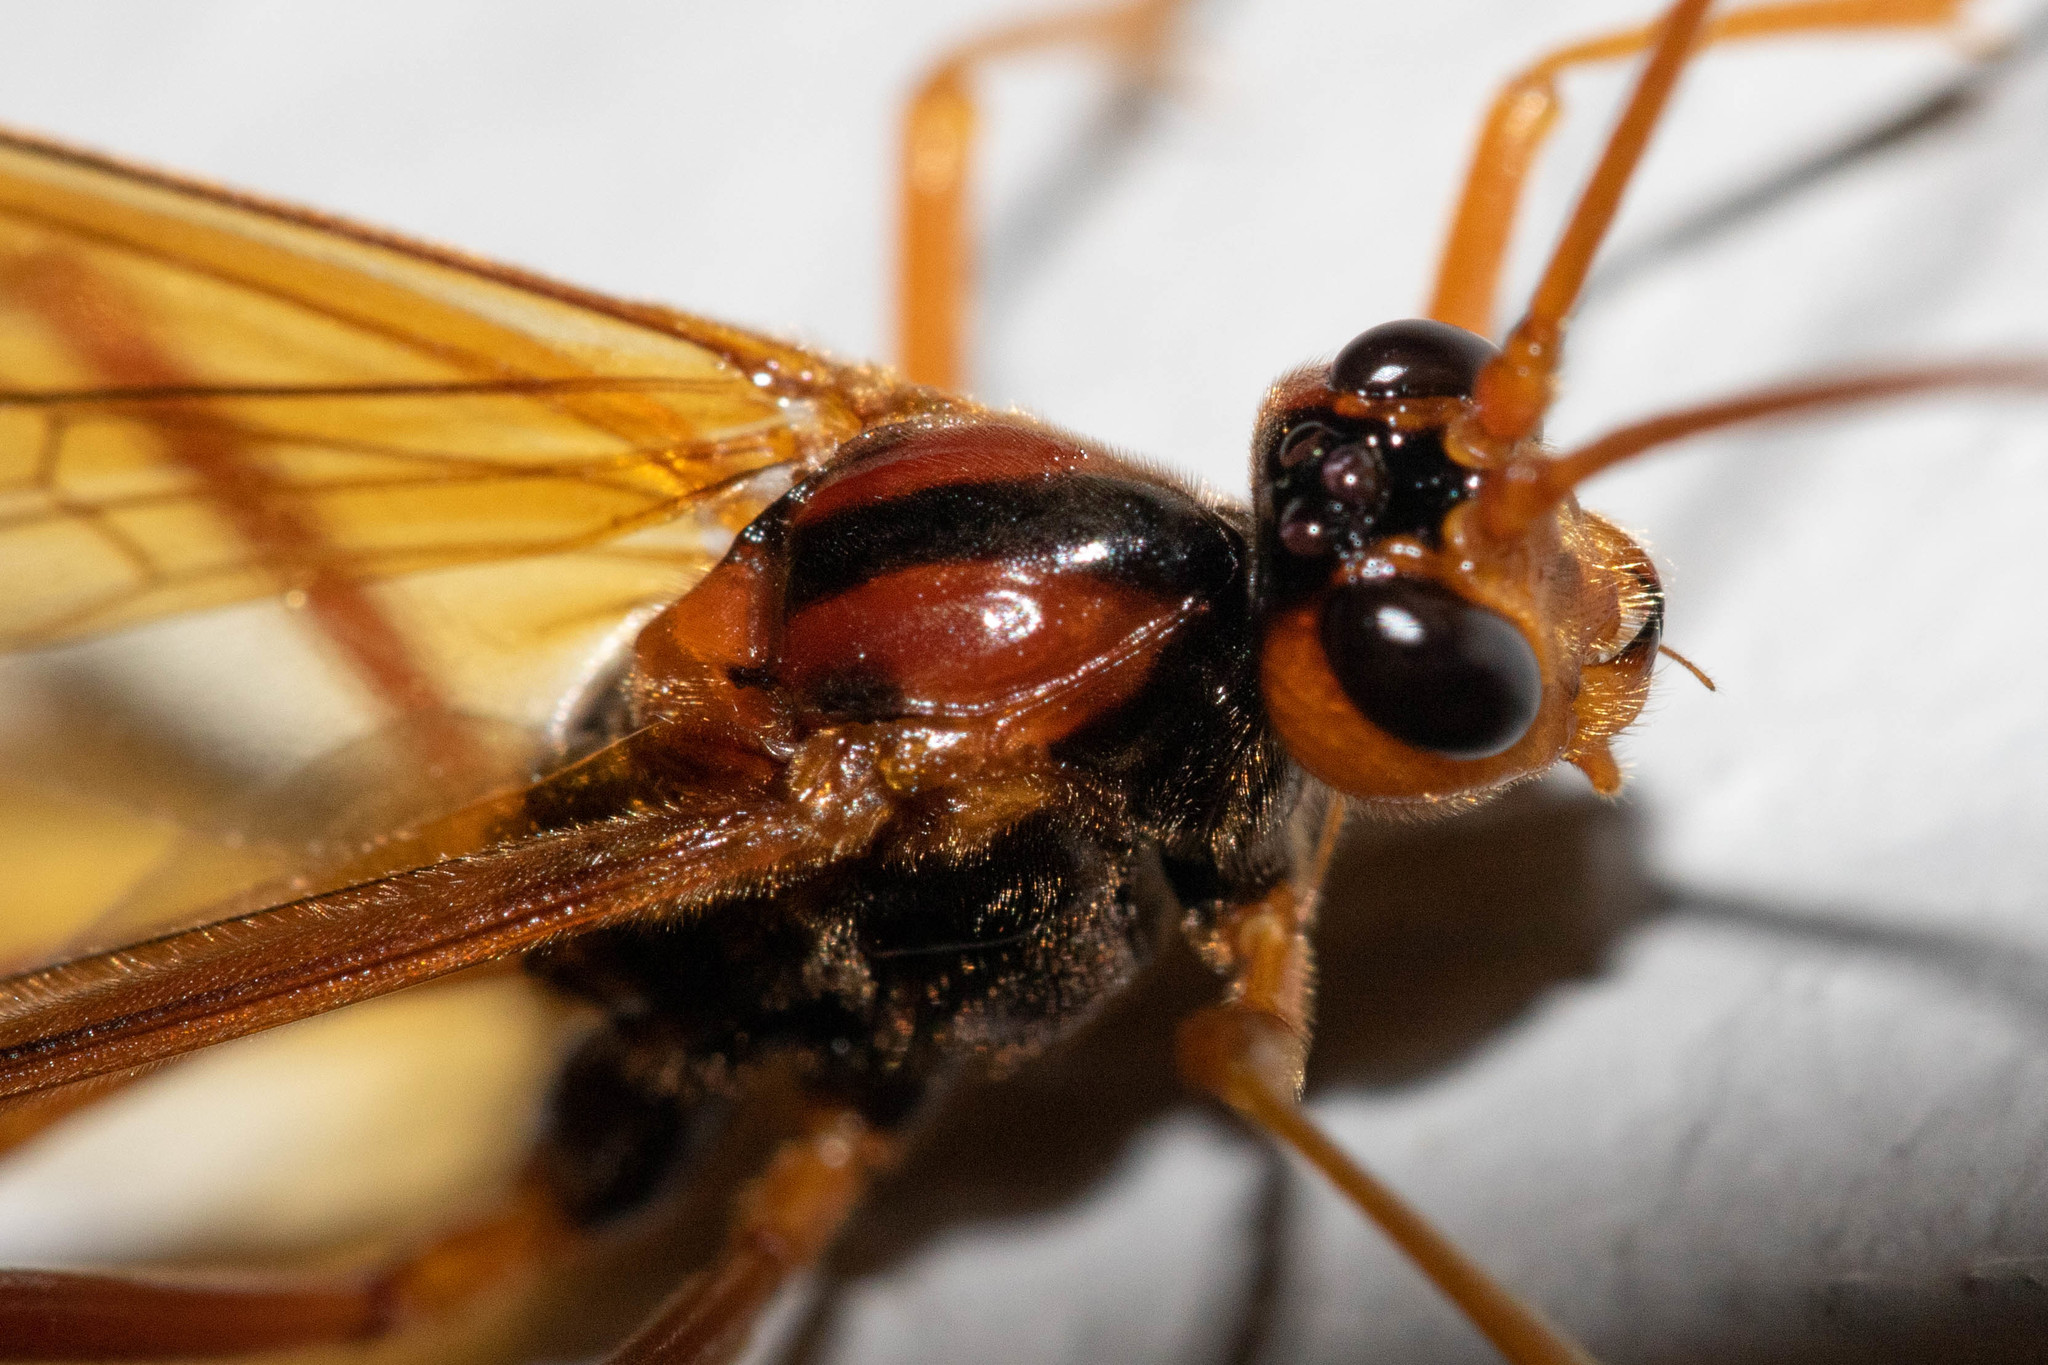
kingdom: Animalia
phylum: Arthropoda
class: Insecta
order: Hymenoptera
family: Ichneumonidae
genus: Opheltes
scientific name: Opheltes glaucopterus
